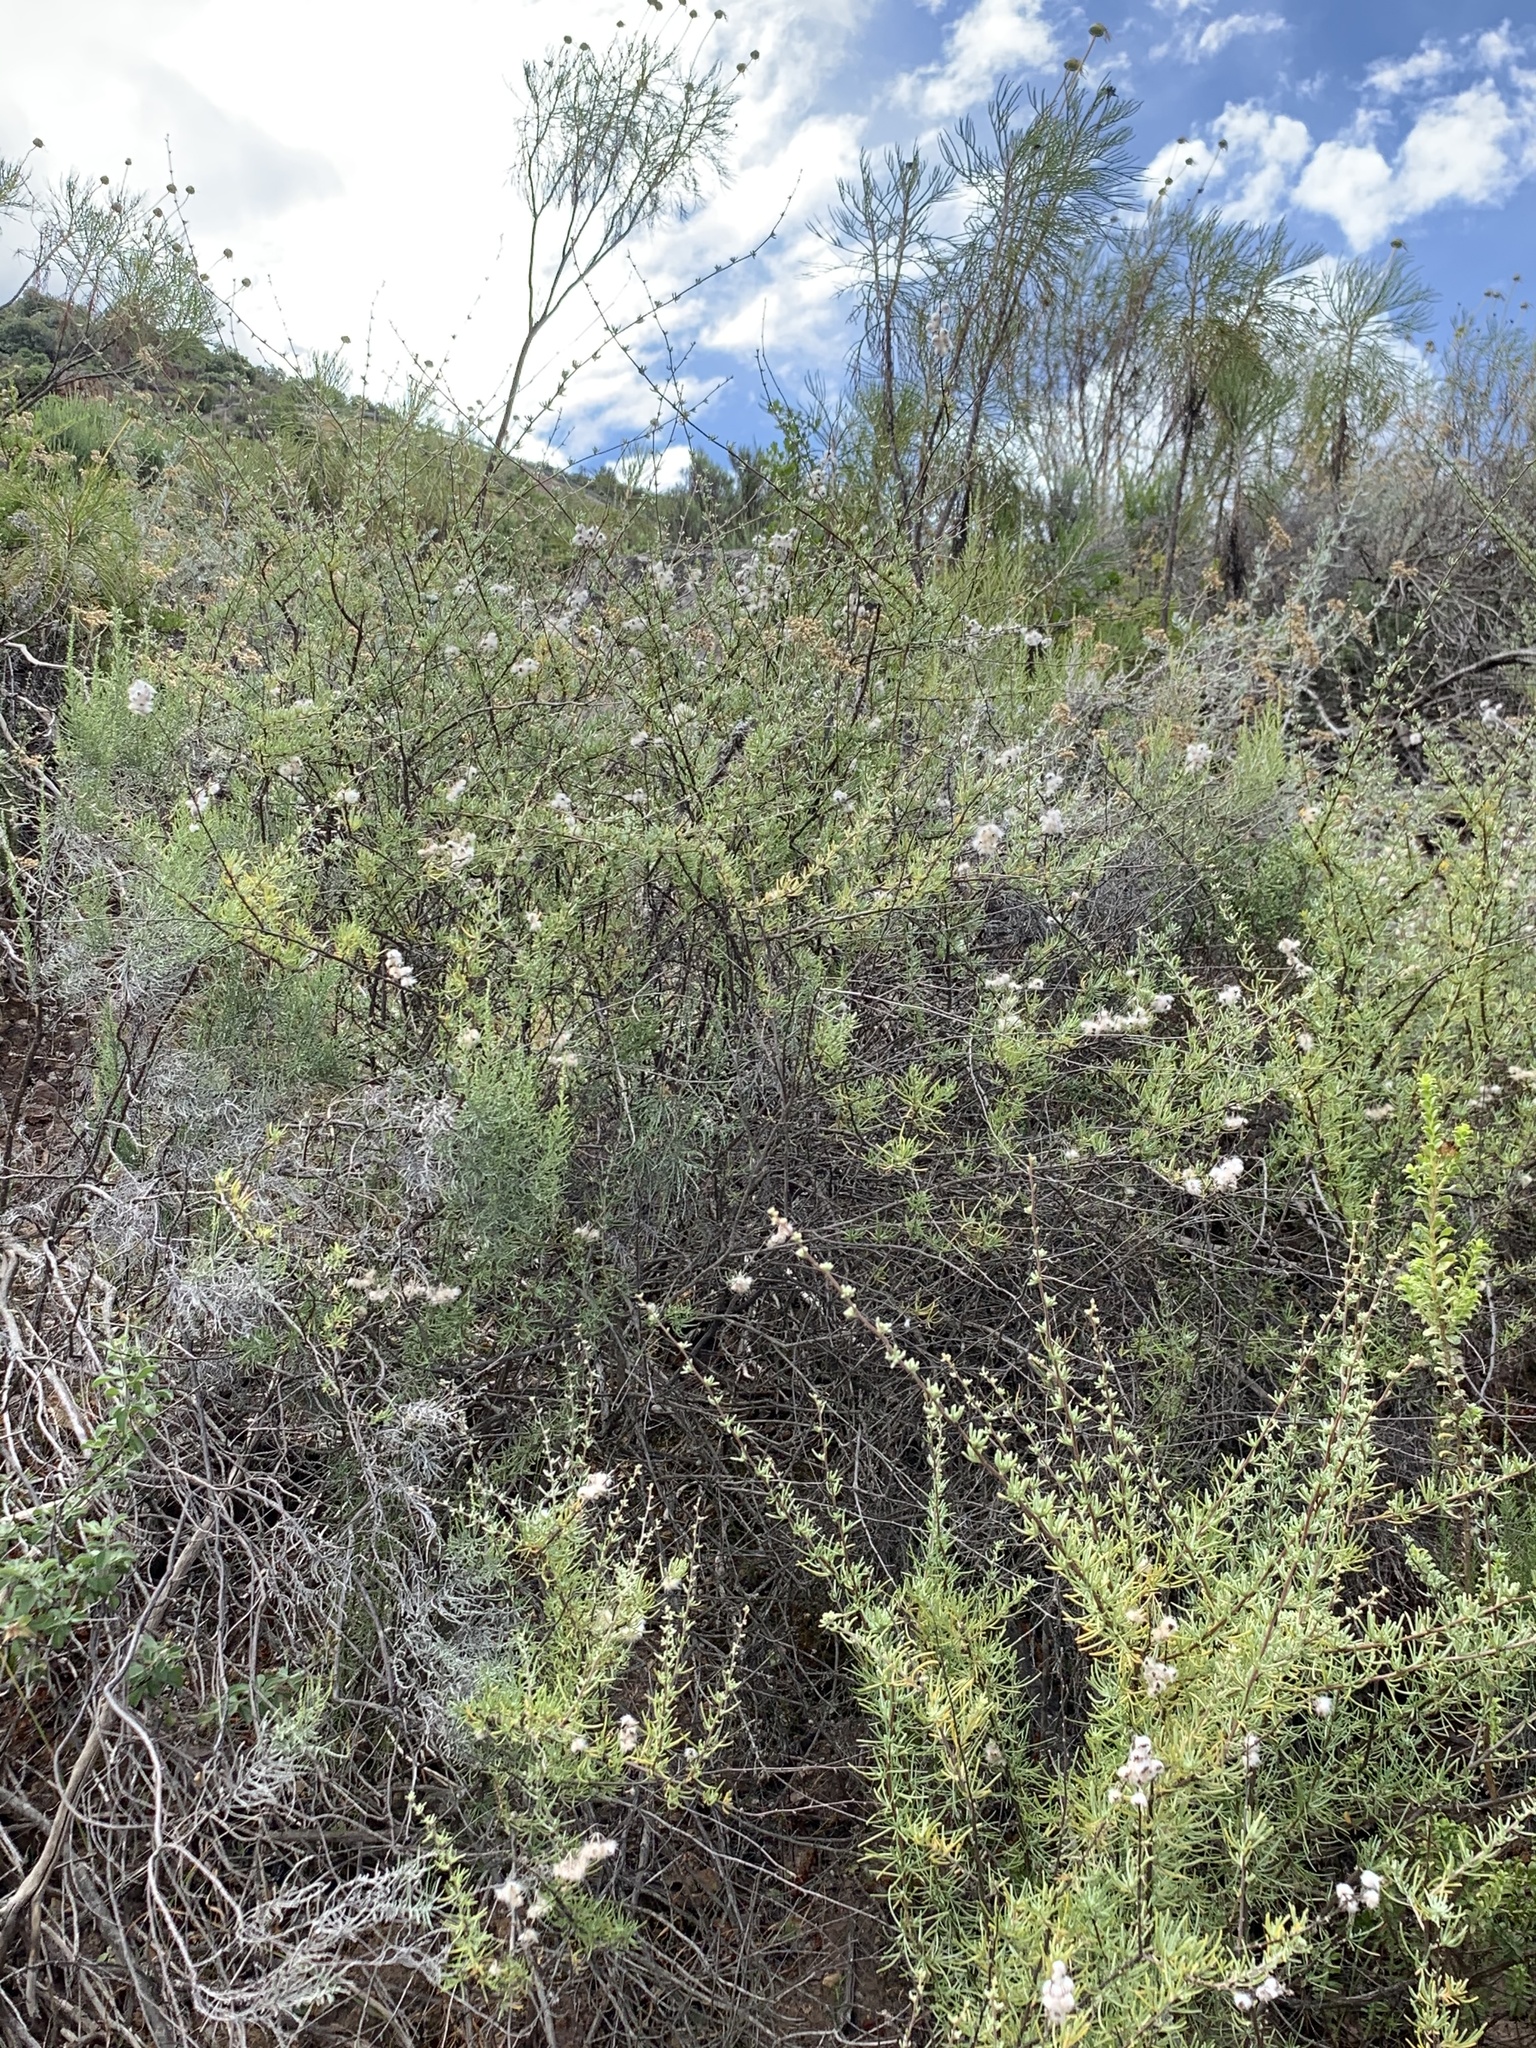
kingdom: Plantae
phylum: Tracheophyta
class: Magnoliopsida
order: Asterales
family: Asteraceae
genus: Eriocephalus
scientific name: Eriocephalus africanus
